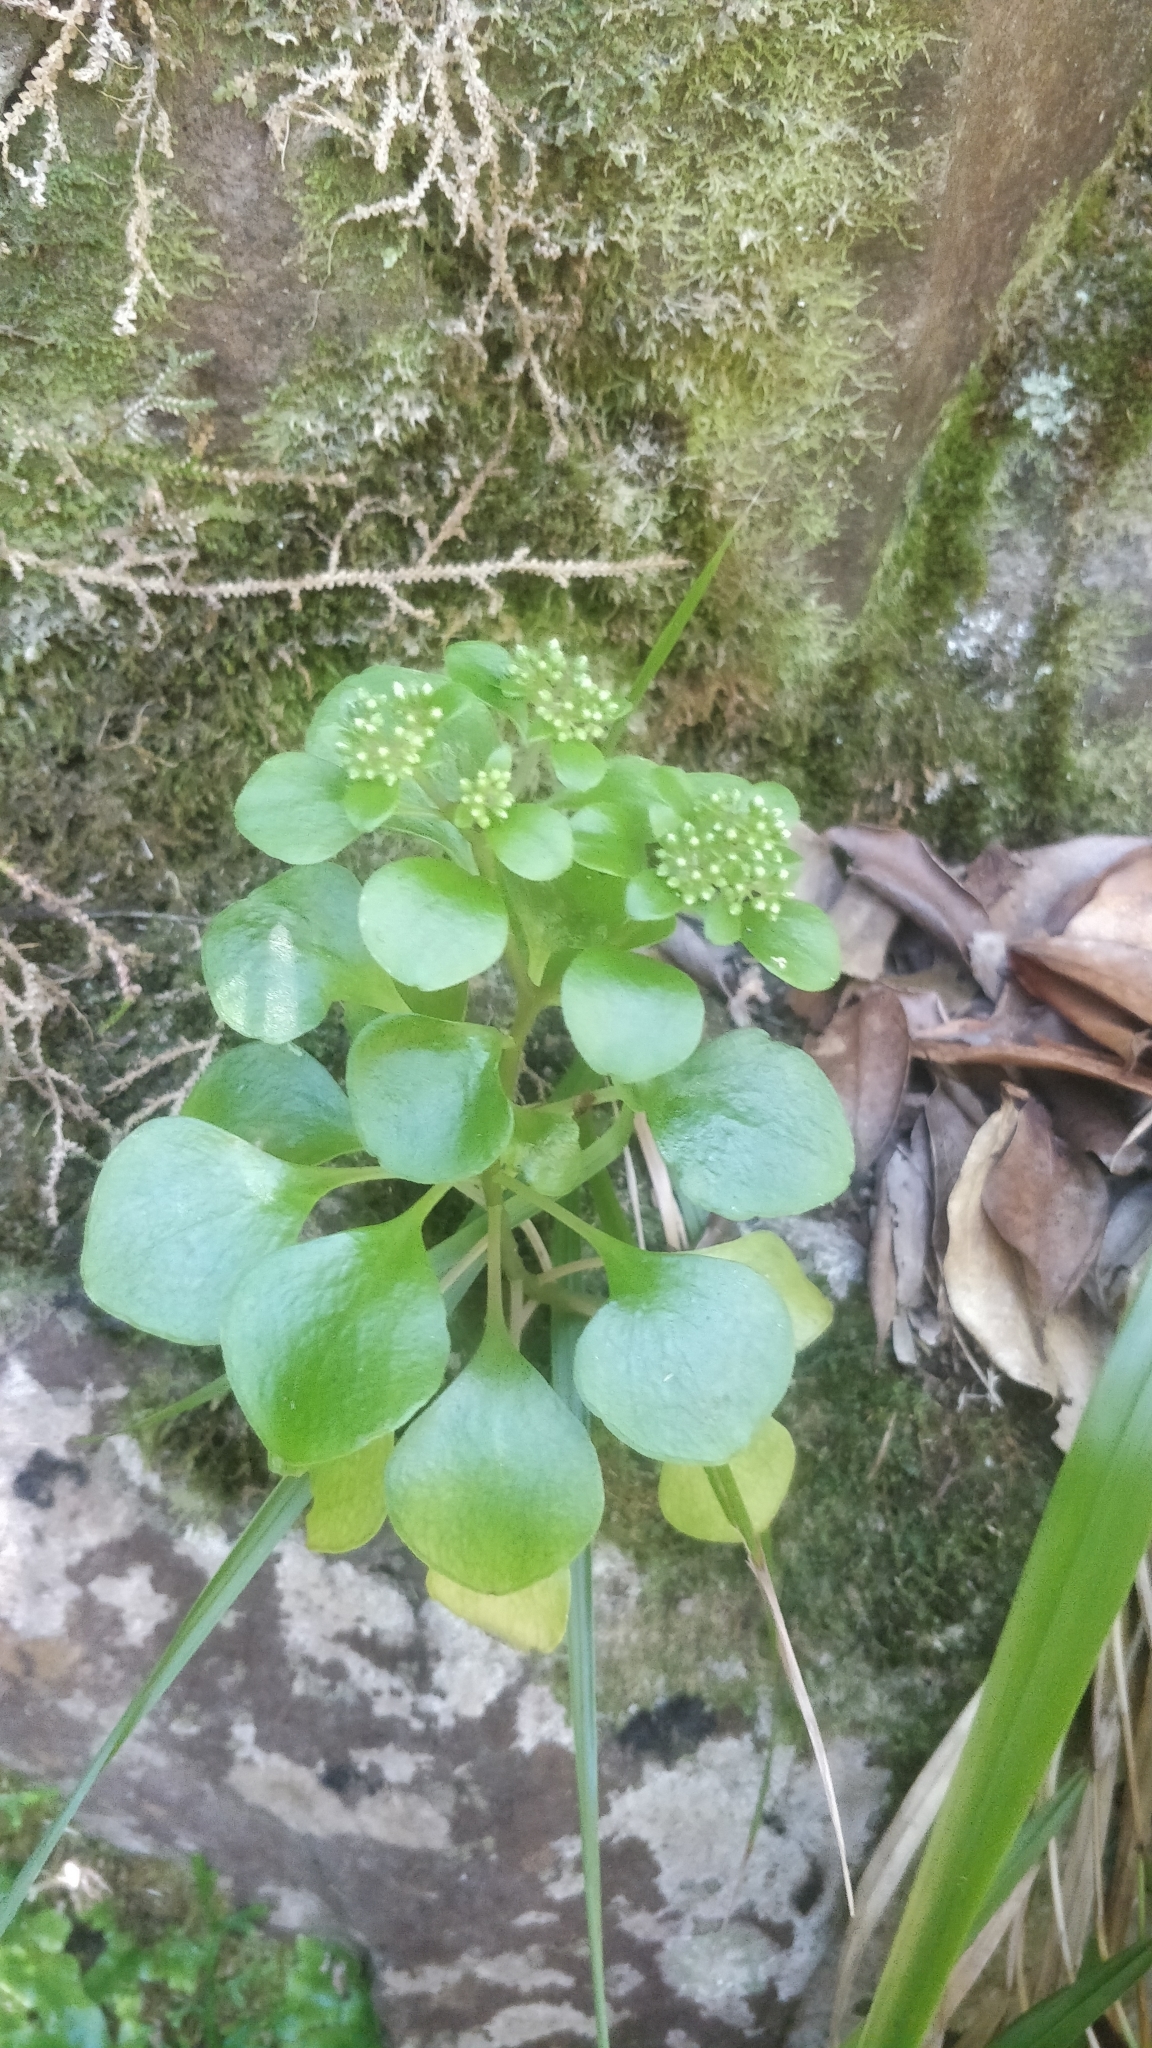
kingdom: Plantae
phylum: Tracheophyta
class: Magnoliopsida
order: Saxifragales
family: Crassulaceae
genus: Aichryson
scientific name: Aichryson divaricatum
